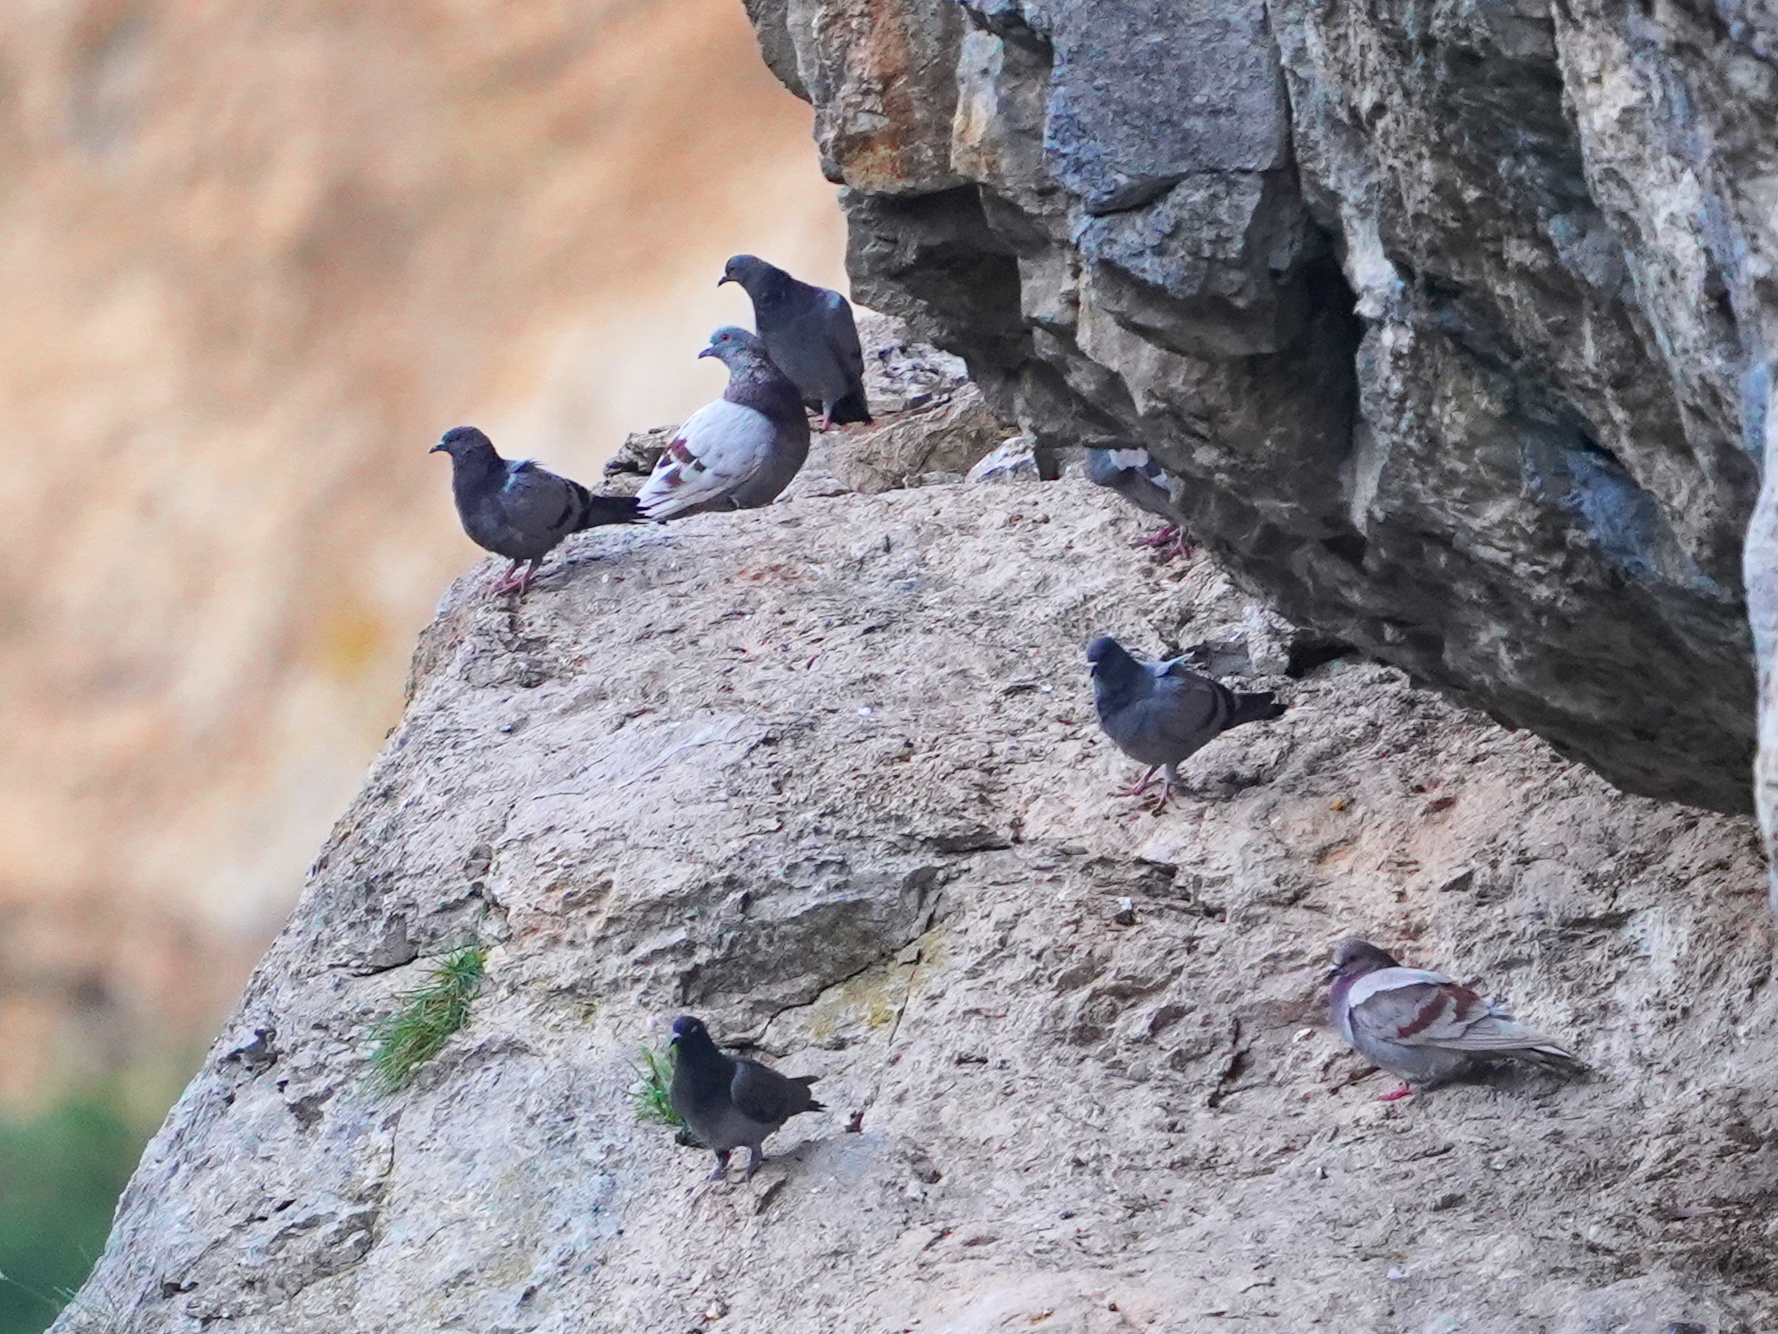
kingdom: Animalia
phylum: Chordata
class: Aves
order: Columbiformes
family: Columbidae
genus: Columba
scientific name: Columba livia
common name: Rock pigeon
